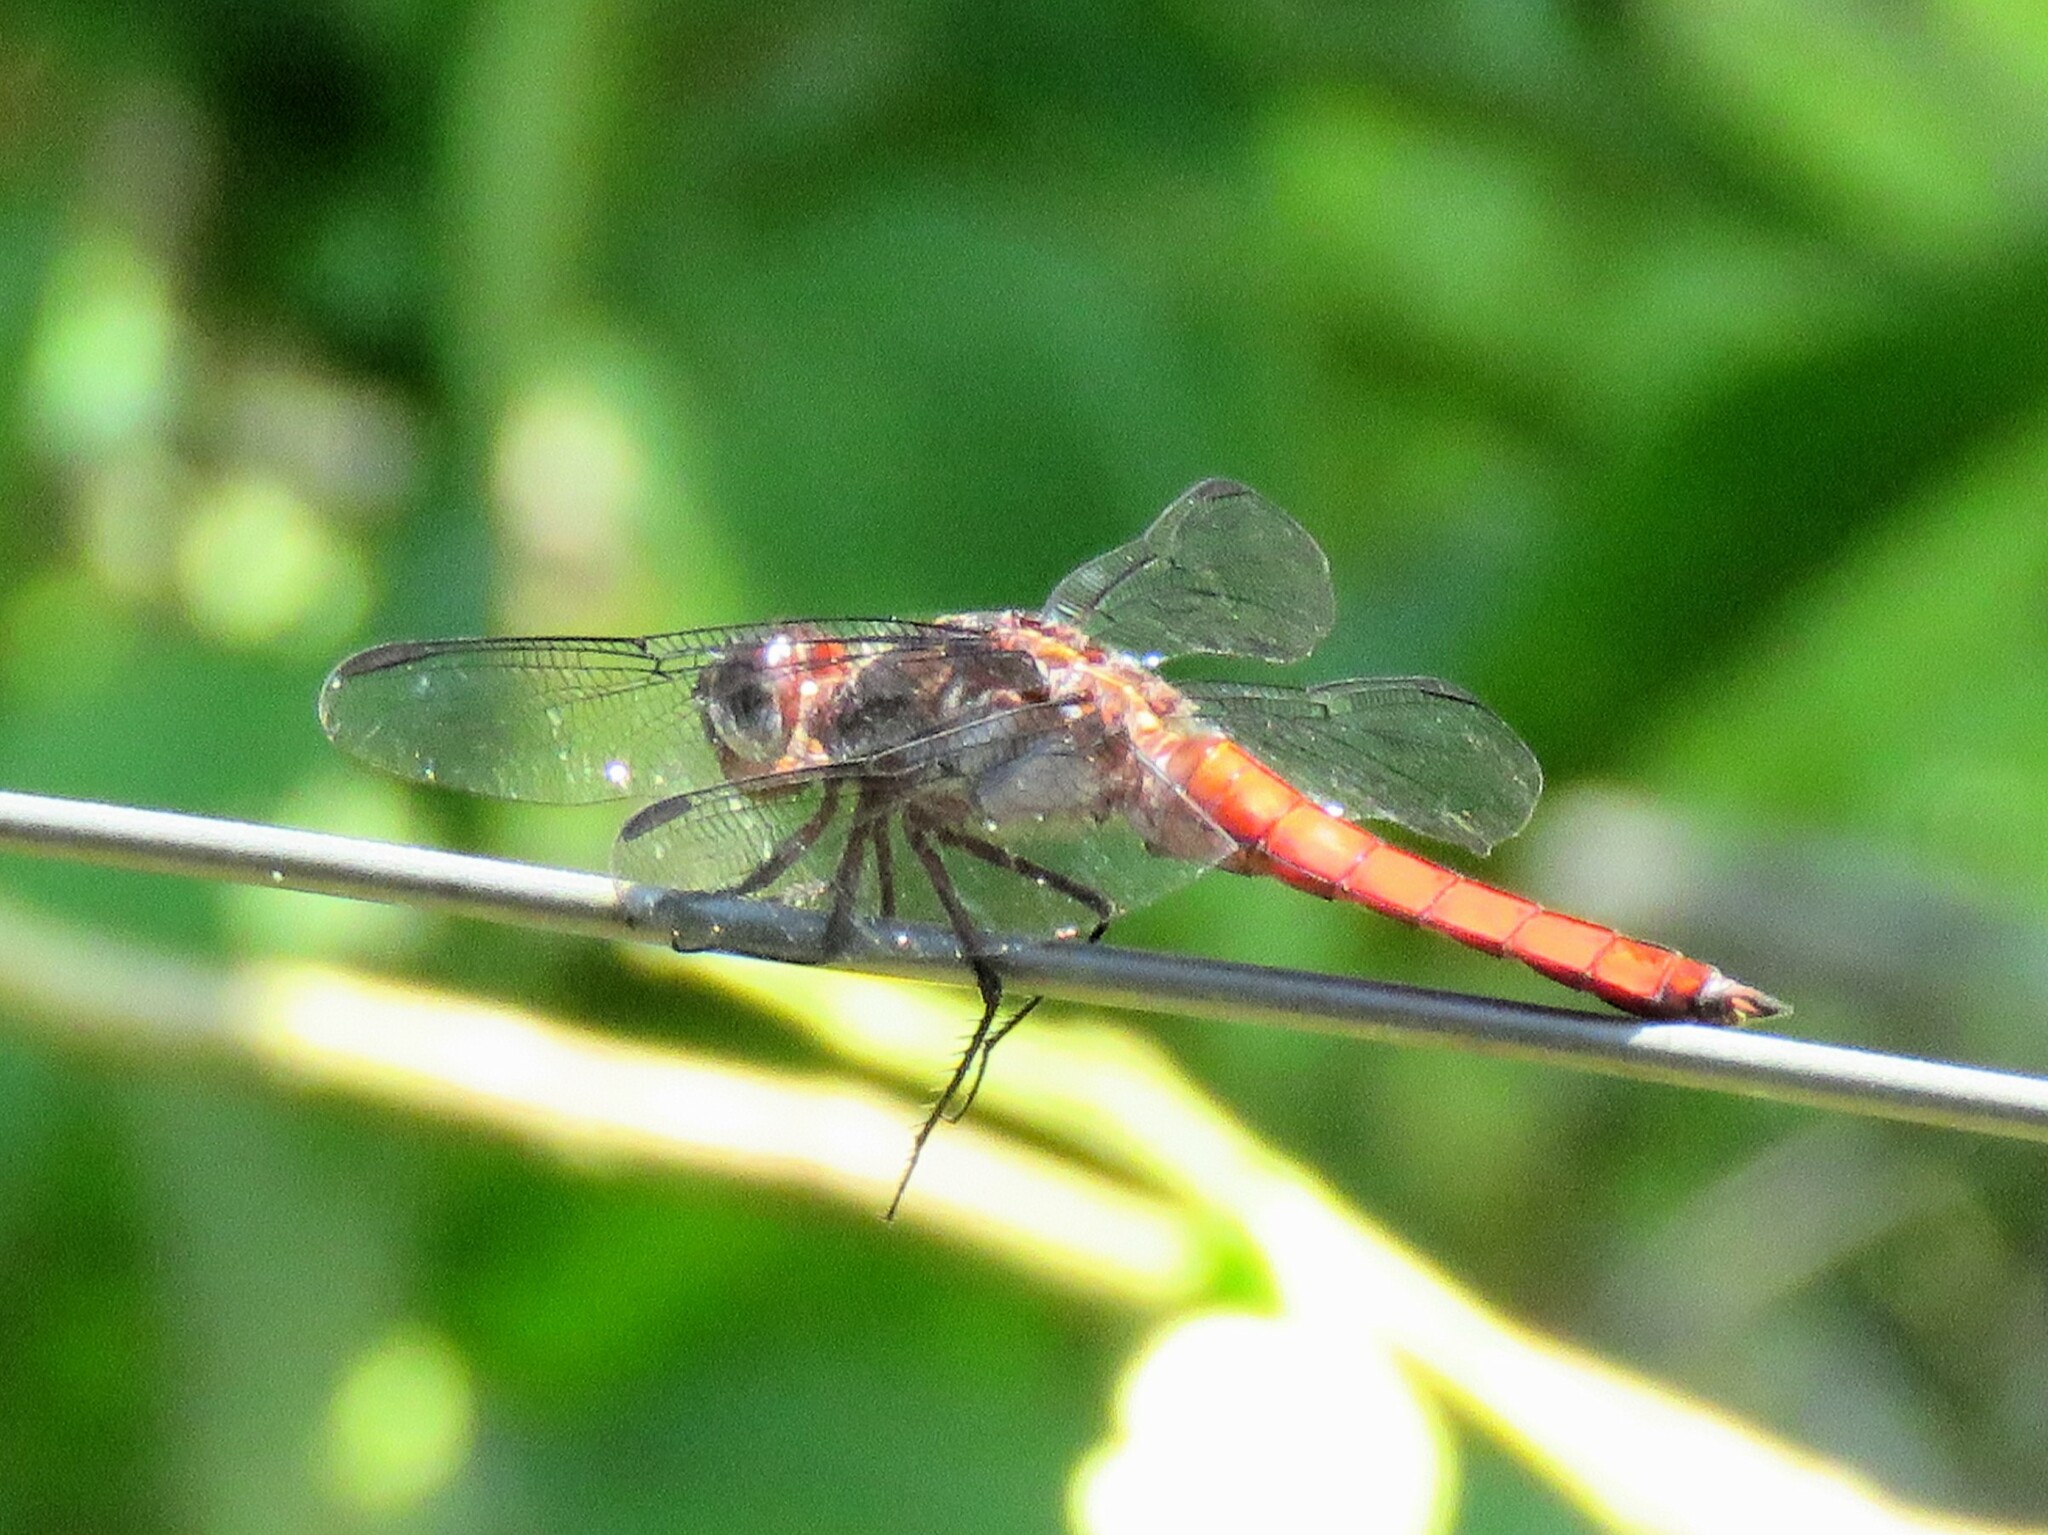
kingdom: Animalia
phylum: Arthropoda
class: Insecta
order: Odonata
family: Libellulidae
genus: Libellula
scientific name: Libellula herculea
